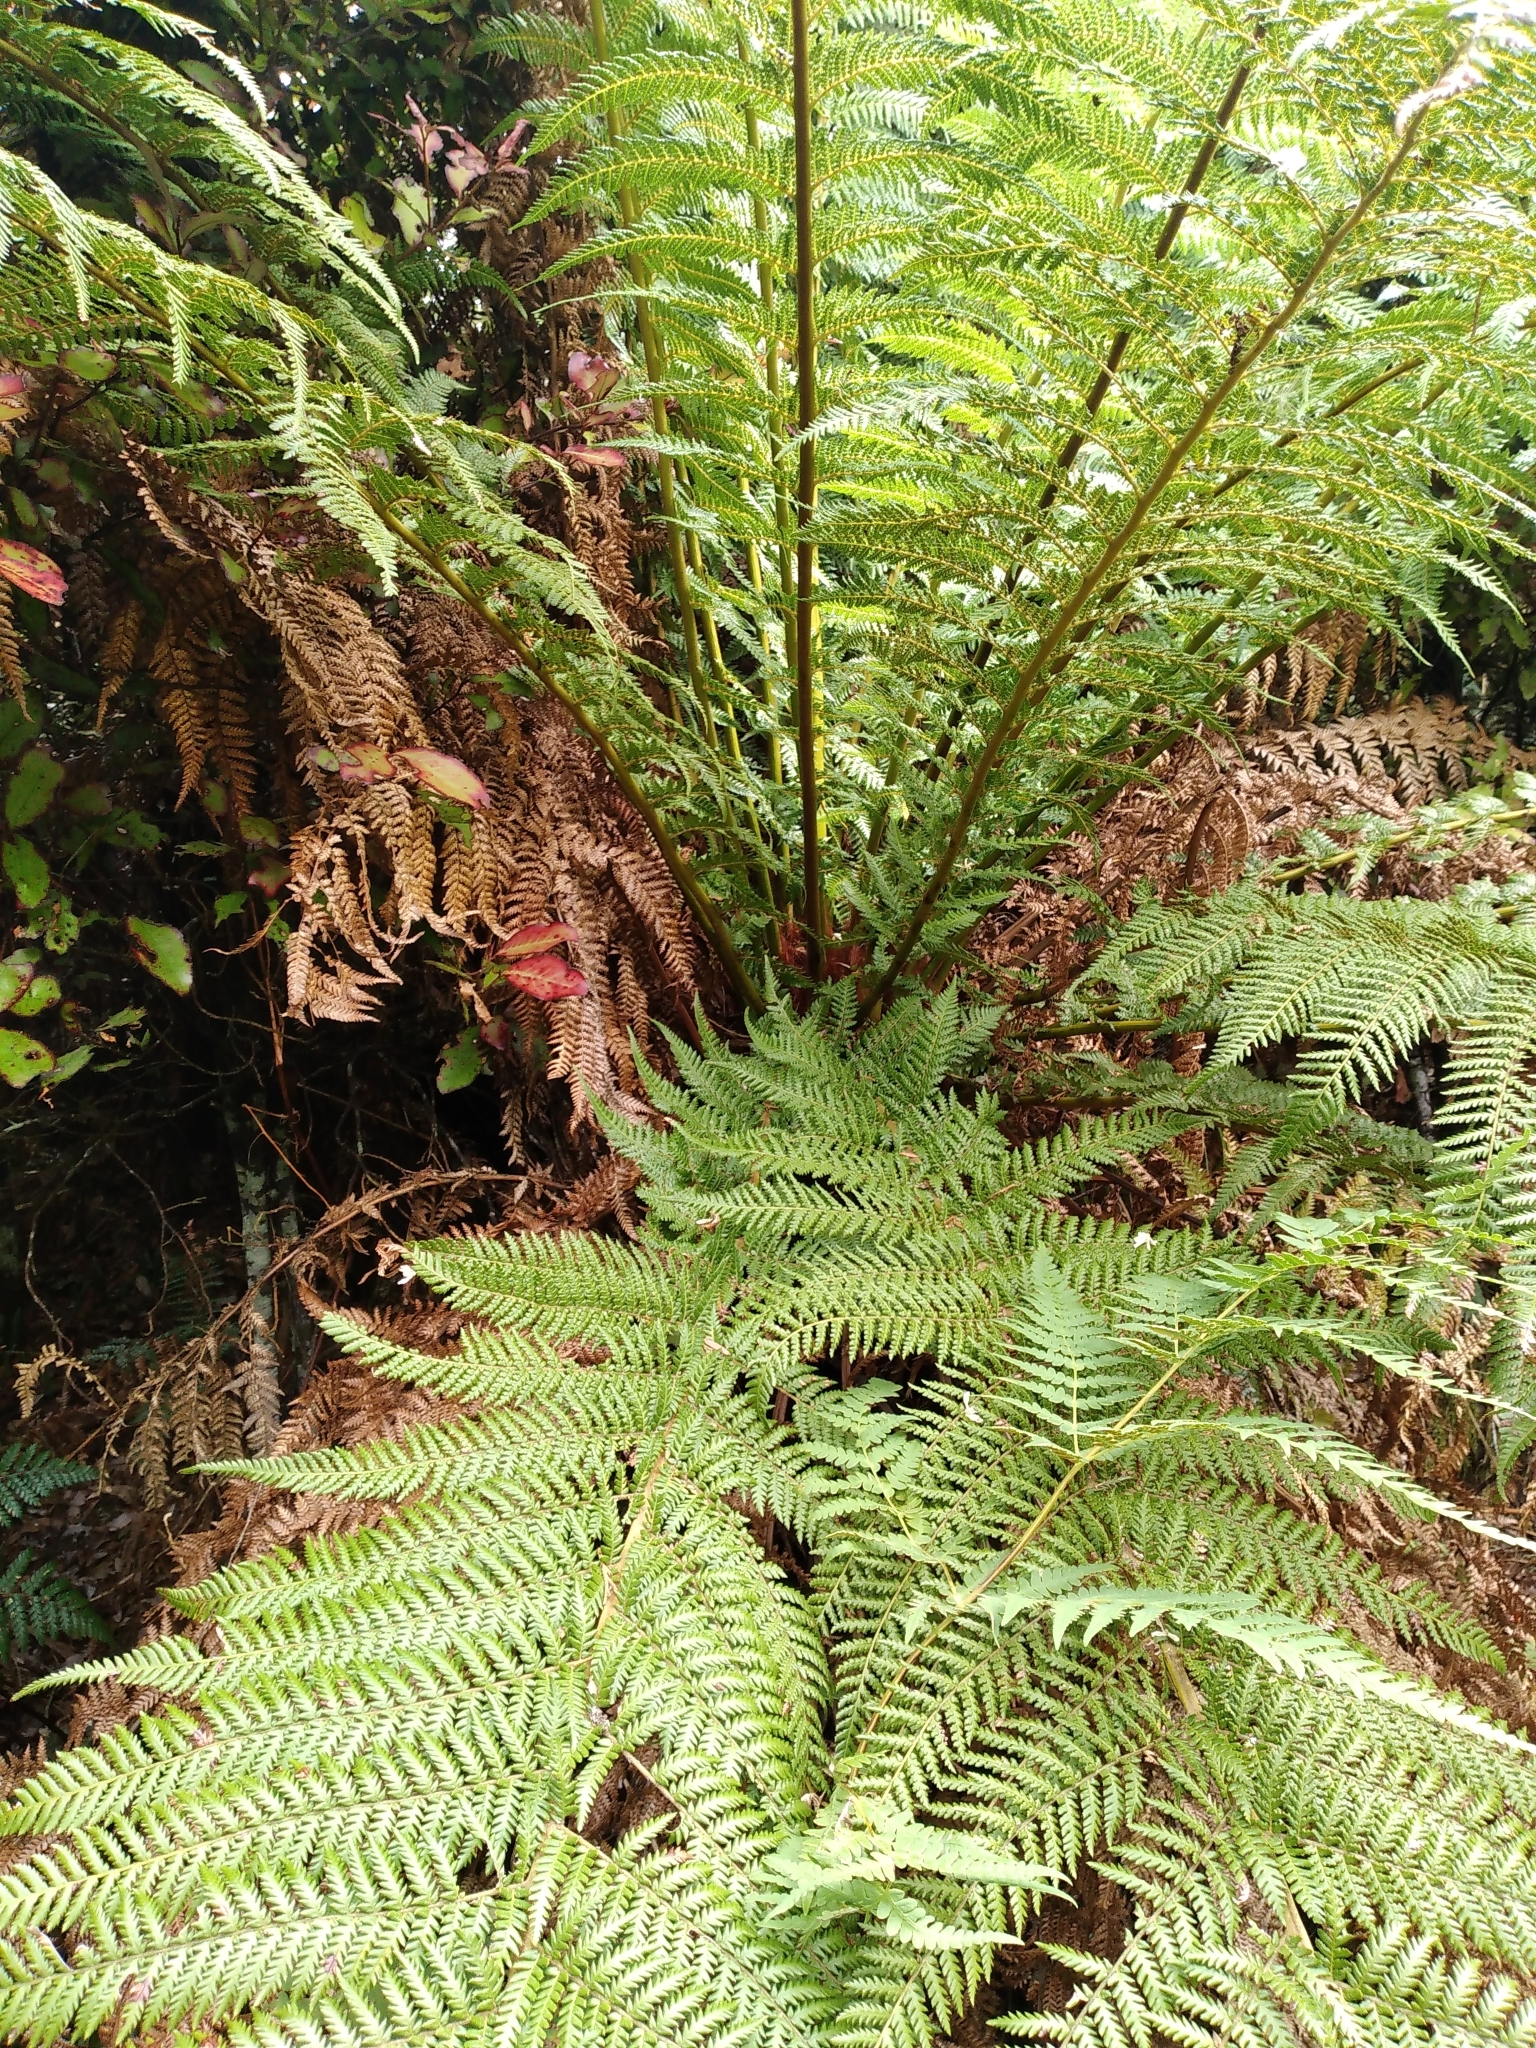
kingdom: Plantae
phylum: Tracheophyta
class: Polypodiopsida
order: Cyatheales
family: Dicksoniaceae
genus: Dicksonia
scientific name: Dicksonia fibrosa
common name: Golden tree fern
